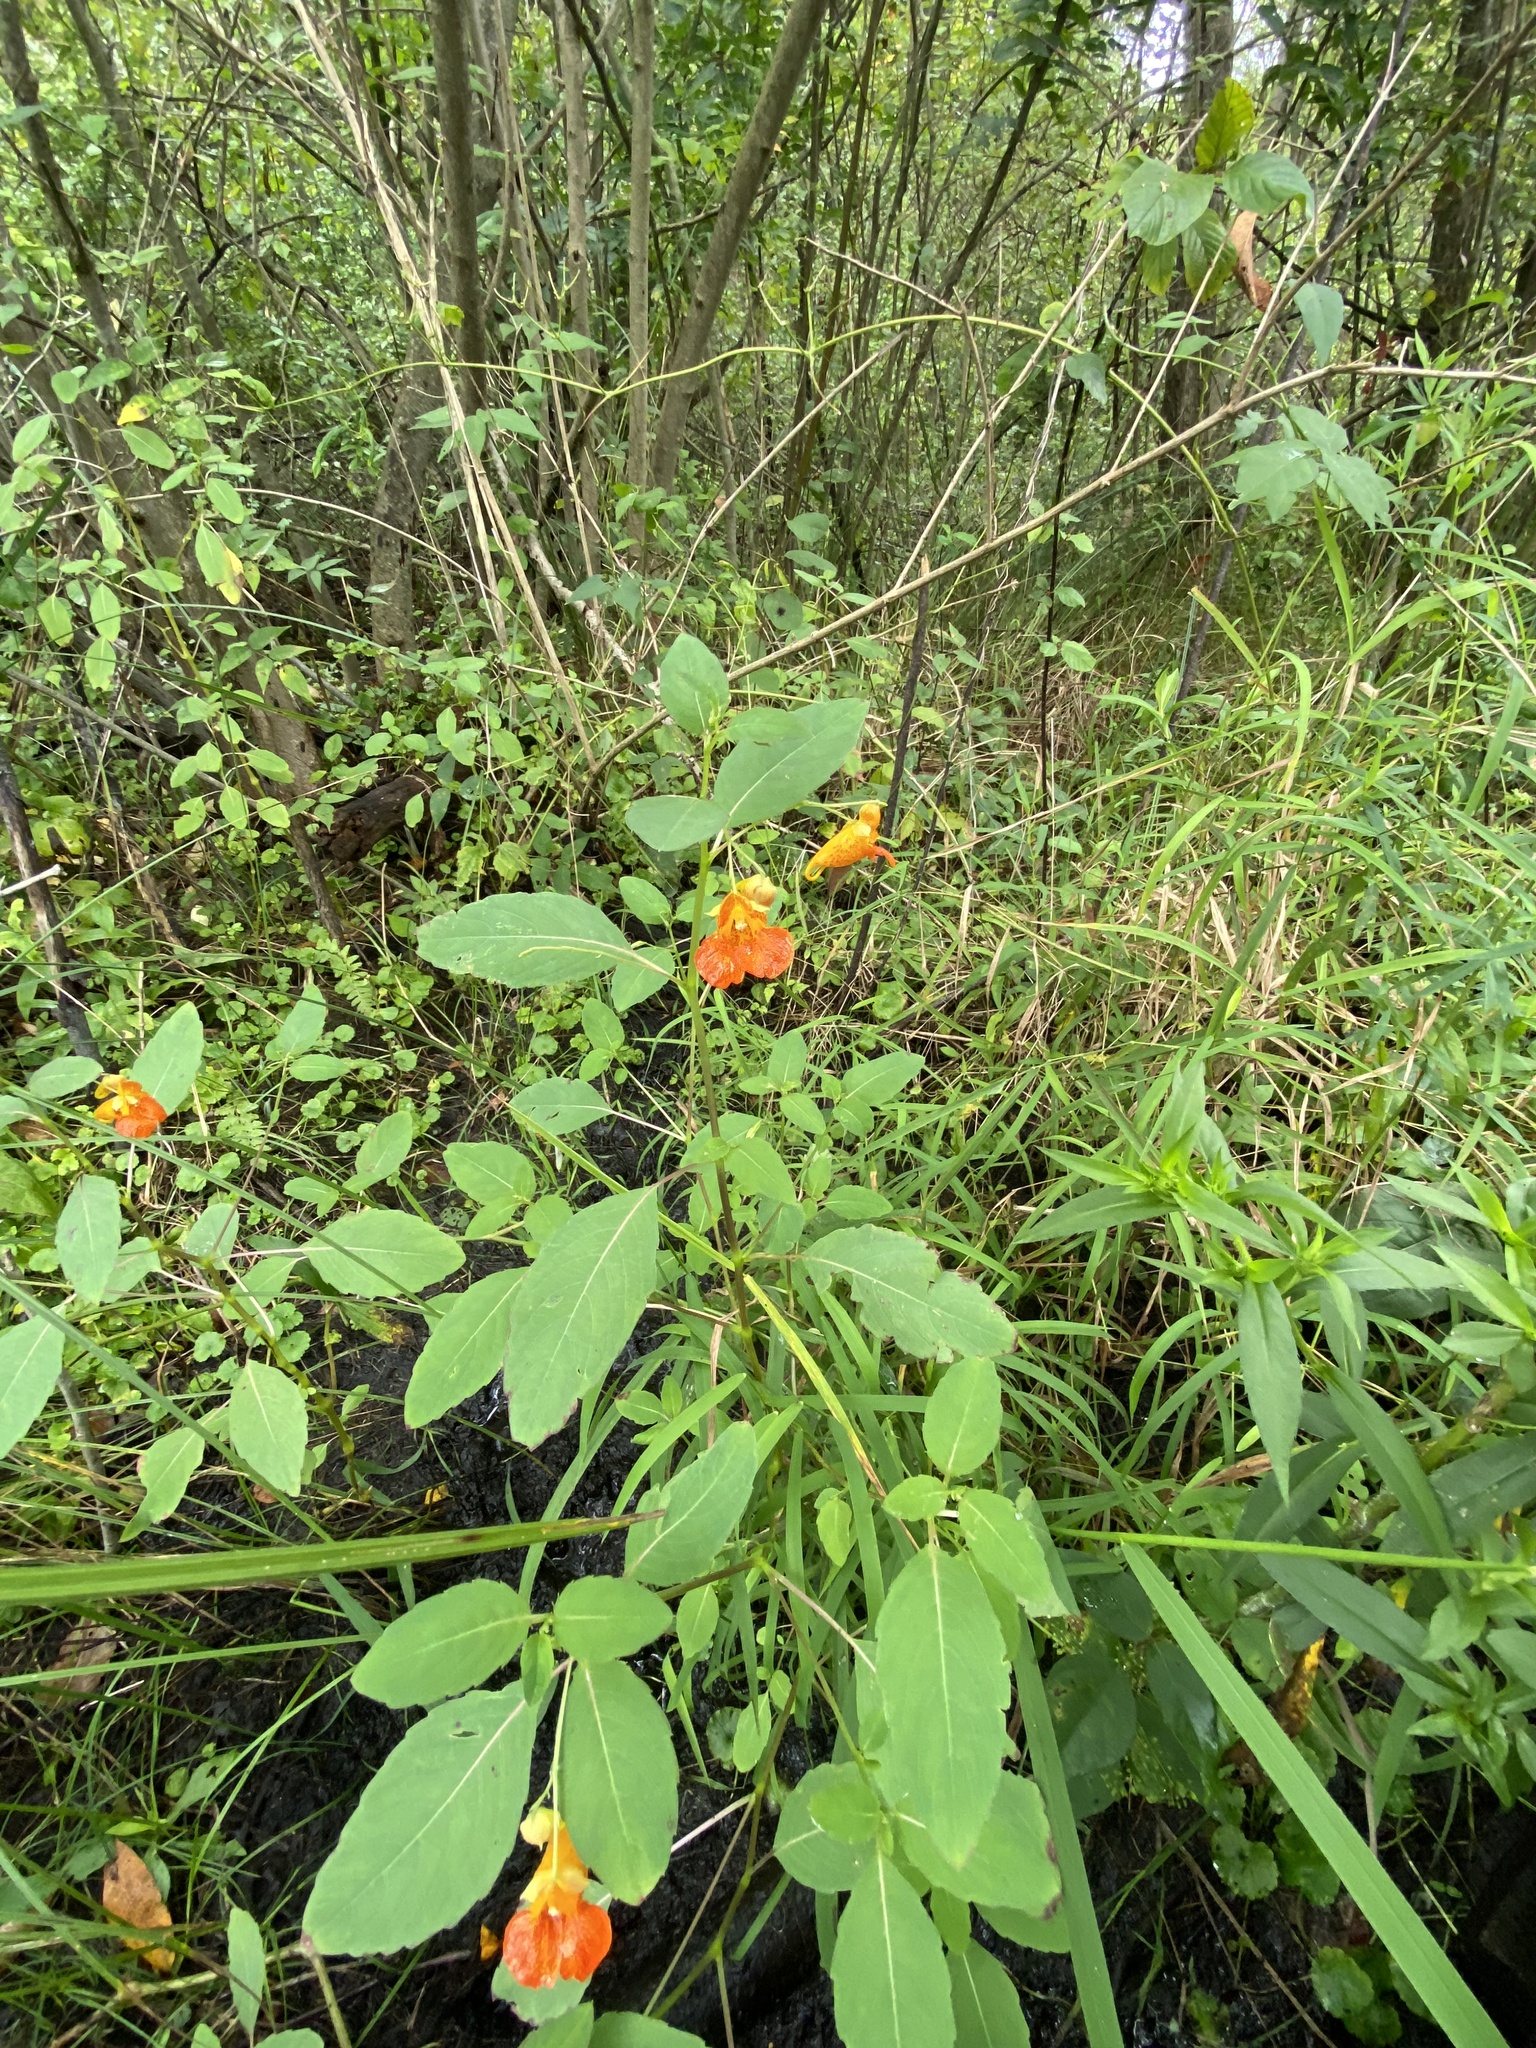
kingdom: Plantae
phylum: Tracheophyta
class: Magnoliopsida
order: Ericales
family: Balsaminaceae
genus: Impatiens
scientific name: Impatiens capensis
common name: Orange balsam
